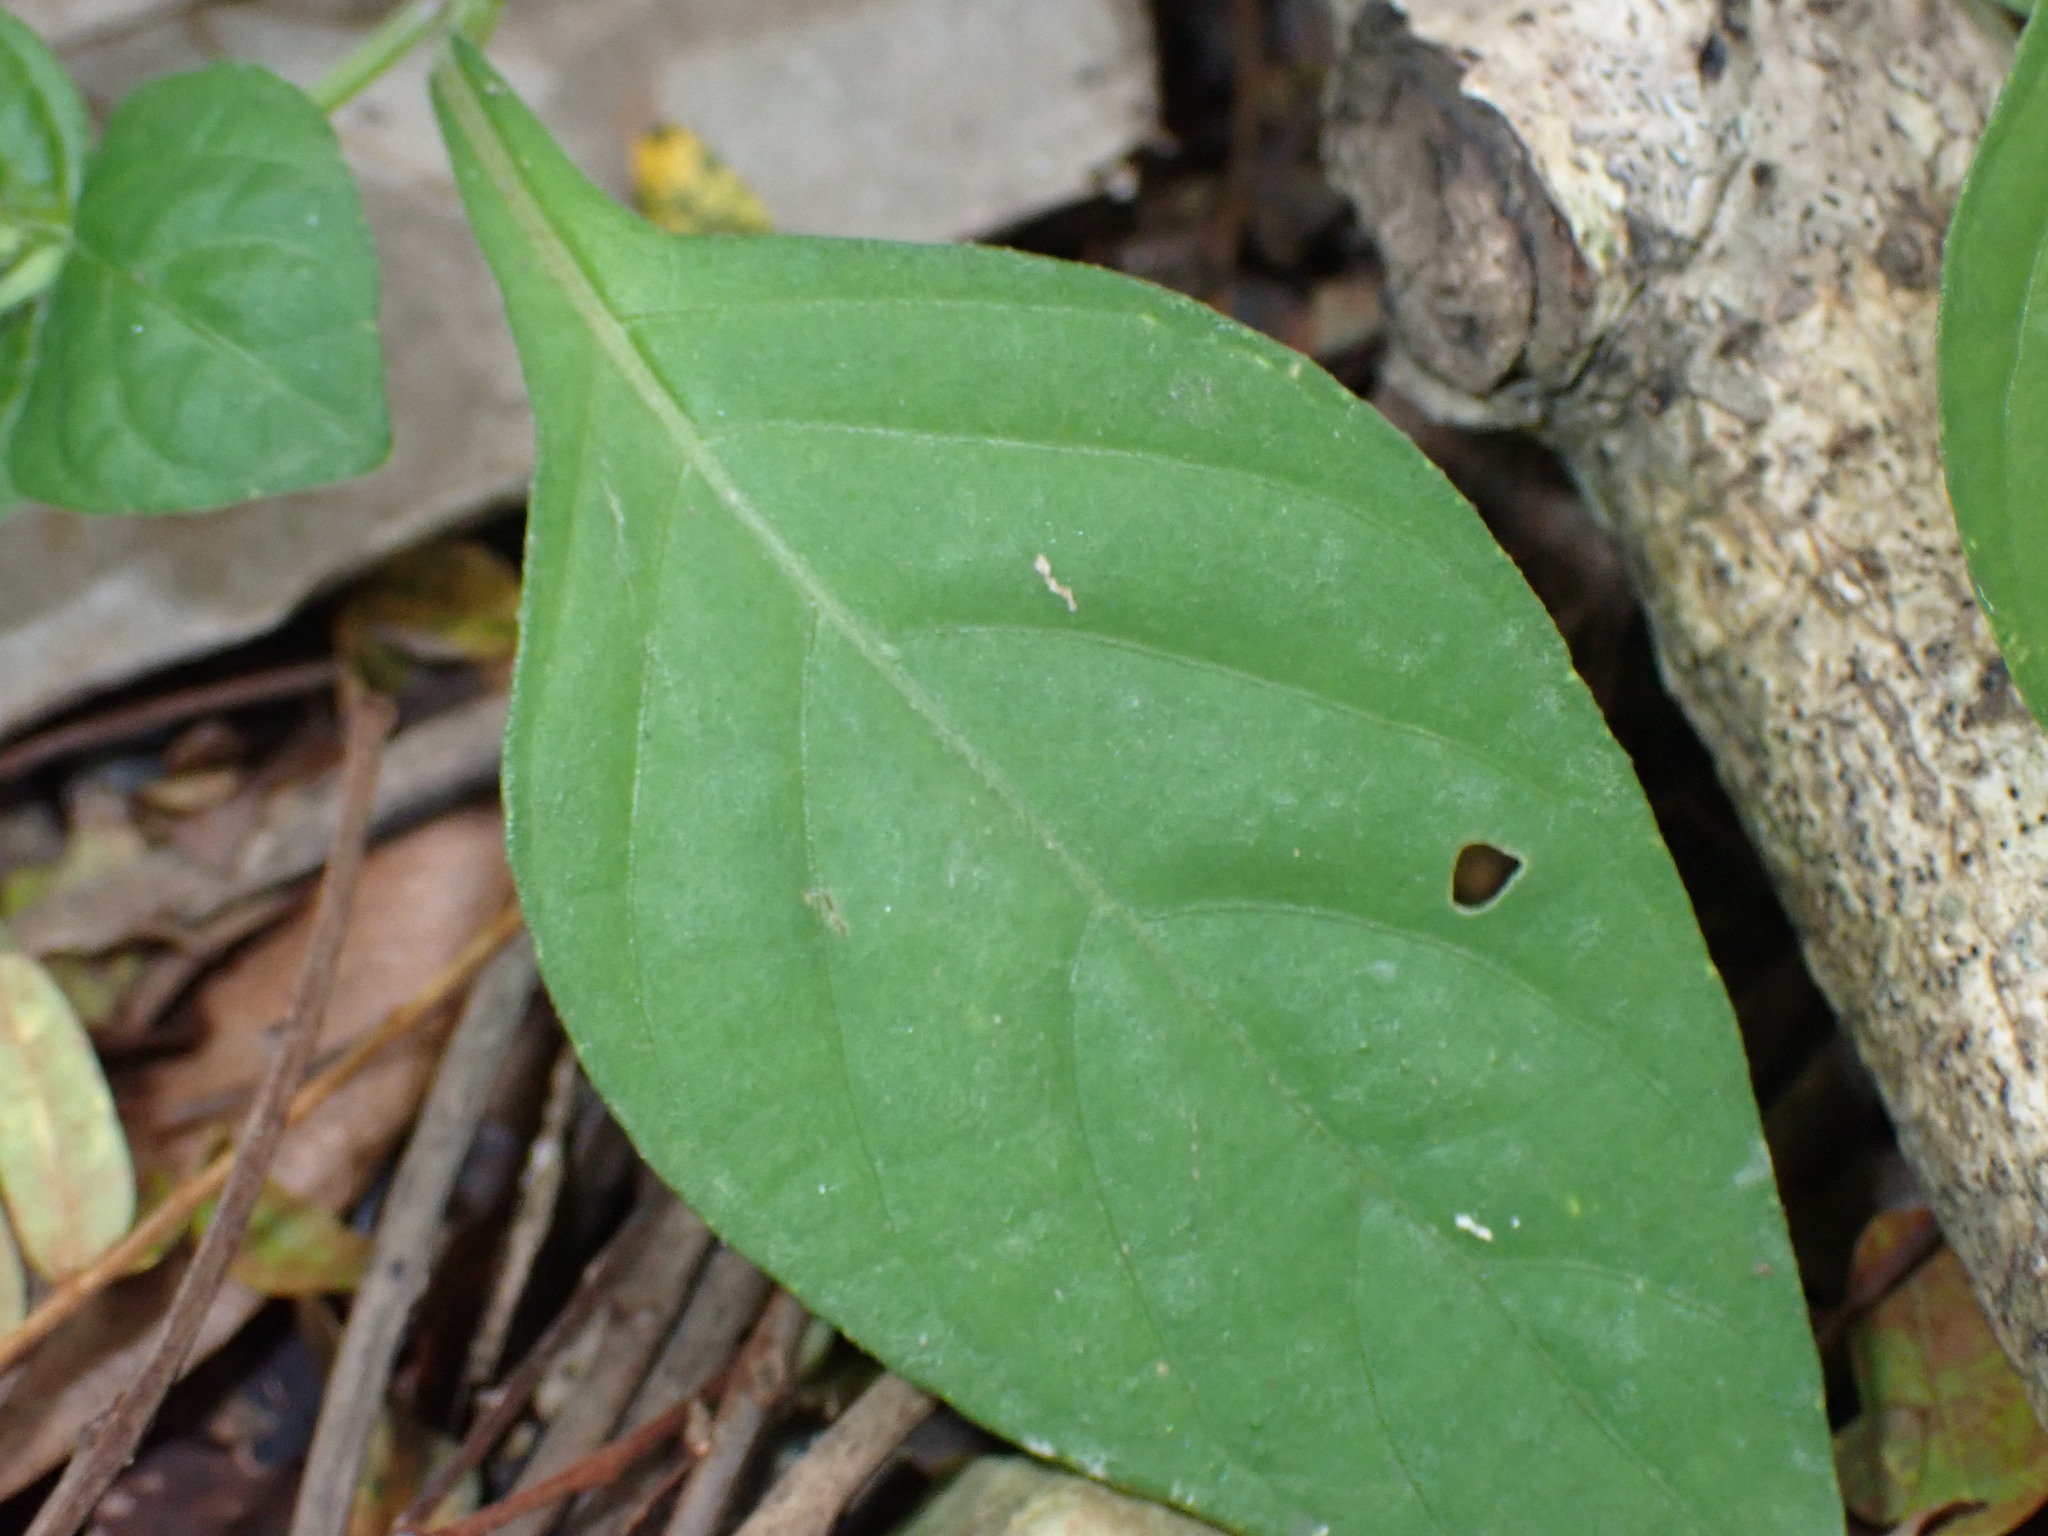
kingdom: Plantae
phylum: Tracheophyta
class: Magnoliopsida
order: Lamiales
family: Acanthaceae
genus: Asystasia
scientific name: Asystasia intrusa
